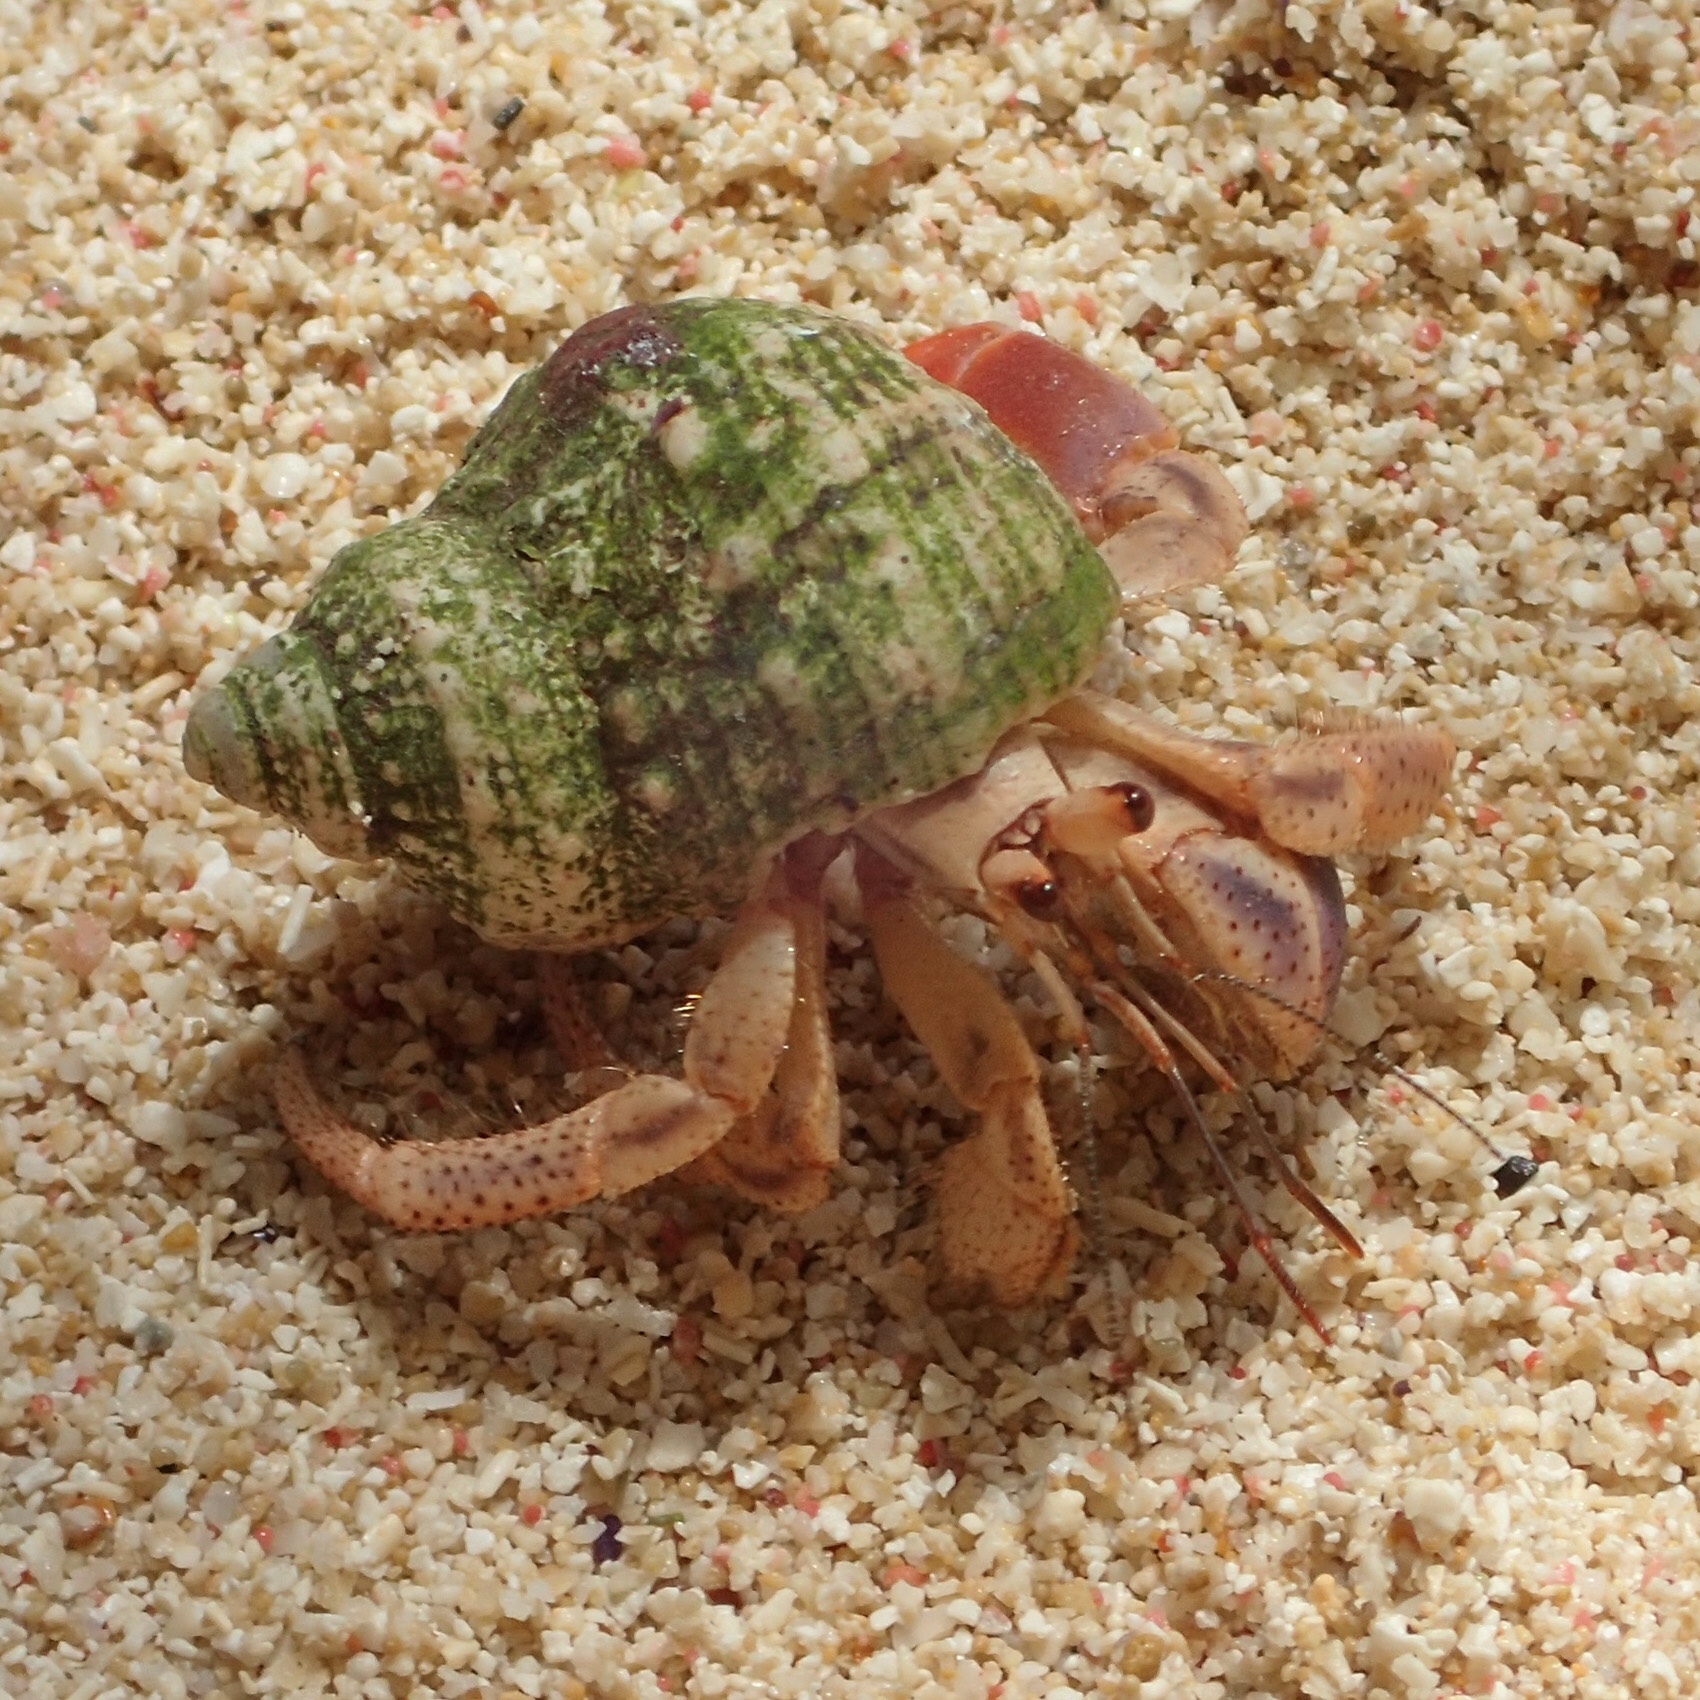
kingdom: Animalia
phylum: Arthropoda
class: Malacostraca
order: Decapoda
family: Coenobitidae
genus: Coenobita
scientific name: Coenobita clypeatus
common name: Caribbean hermit crab
